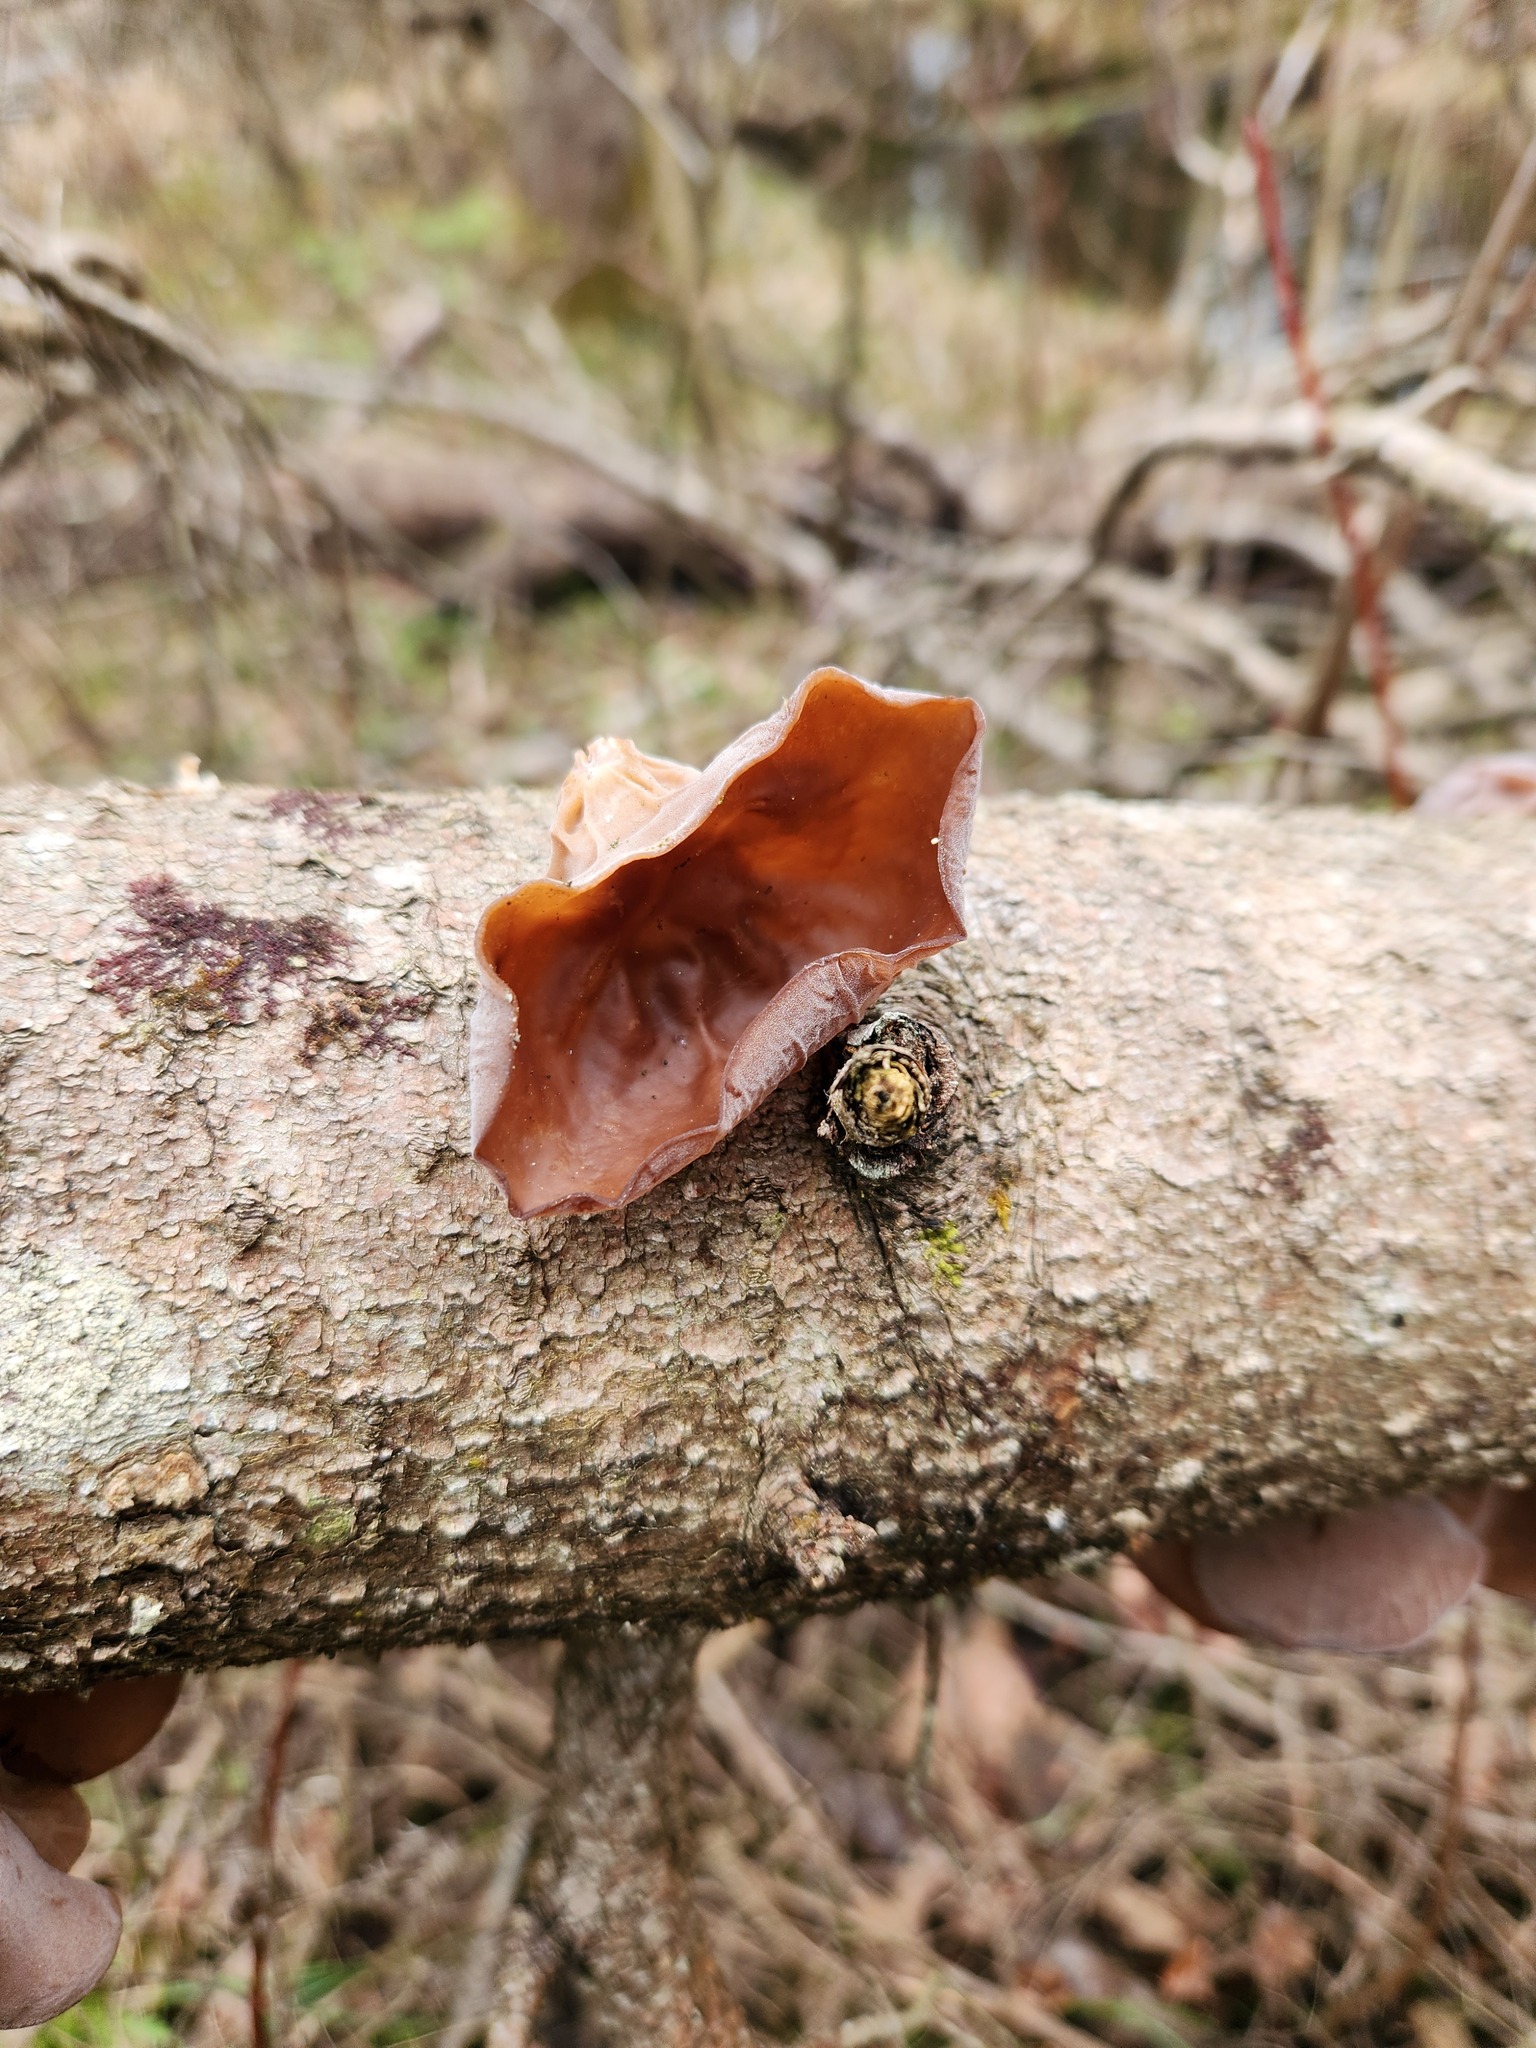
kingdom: Fungi
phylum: Basidiomycota
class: Agaricomycetes
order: Auriculariales
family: Auriculariaceae
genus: Auricularia
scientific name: Auricularia americana
